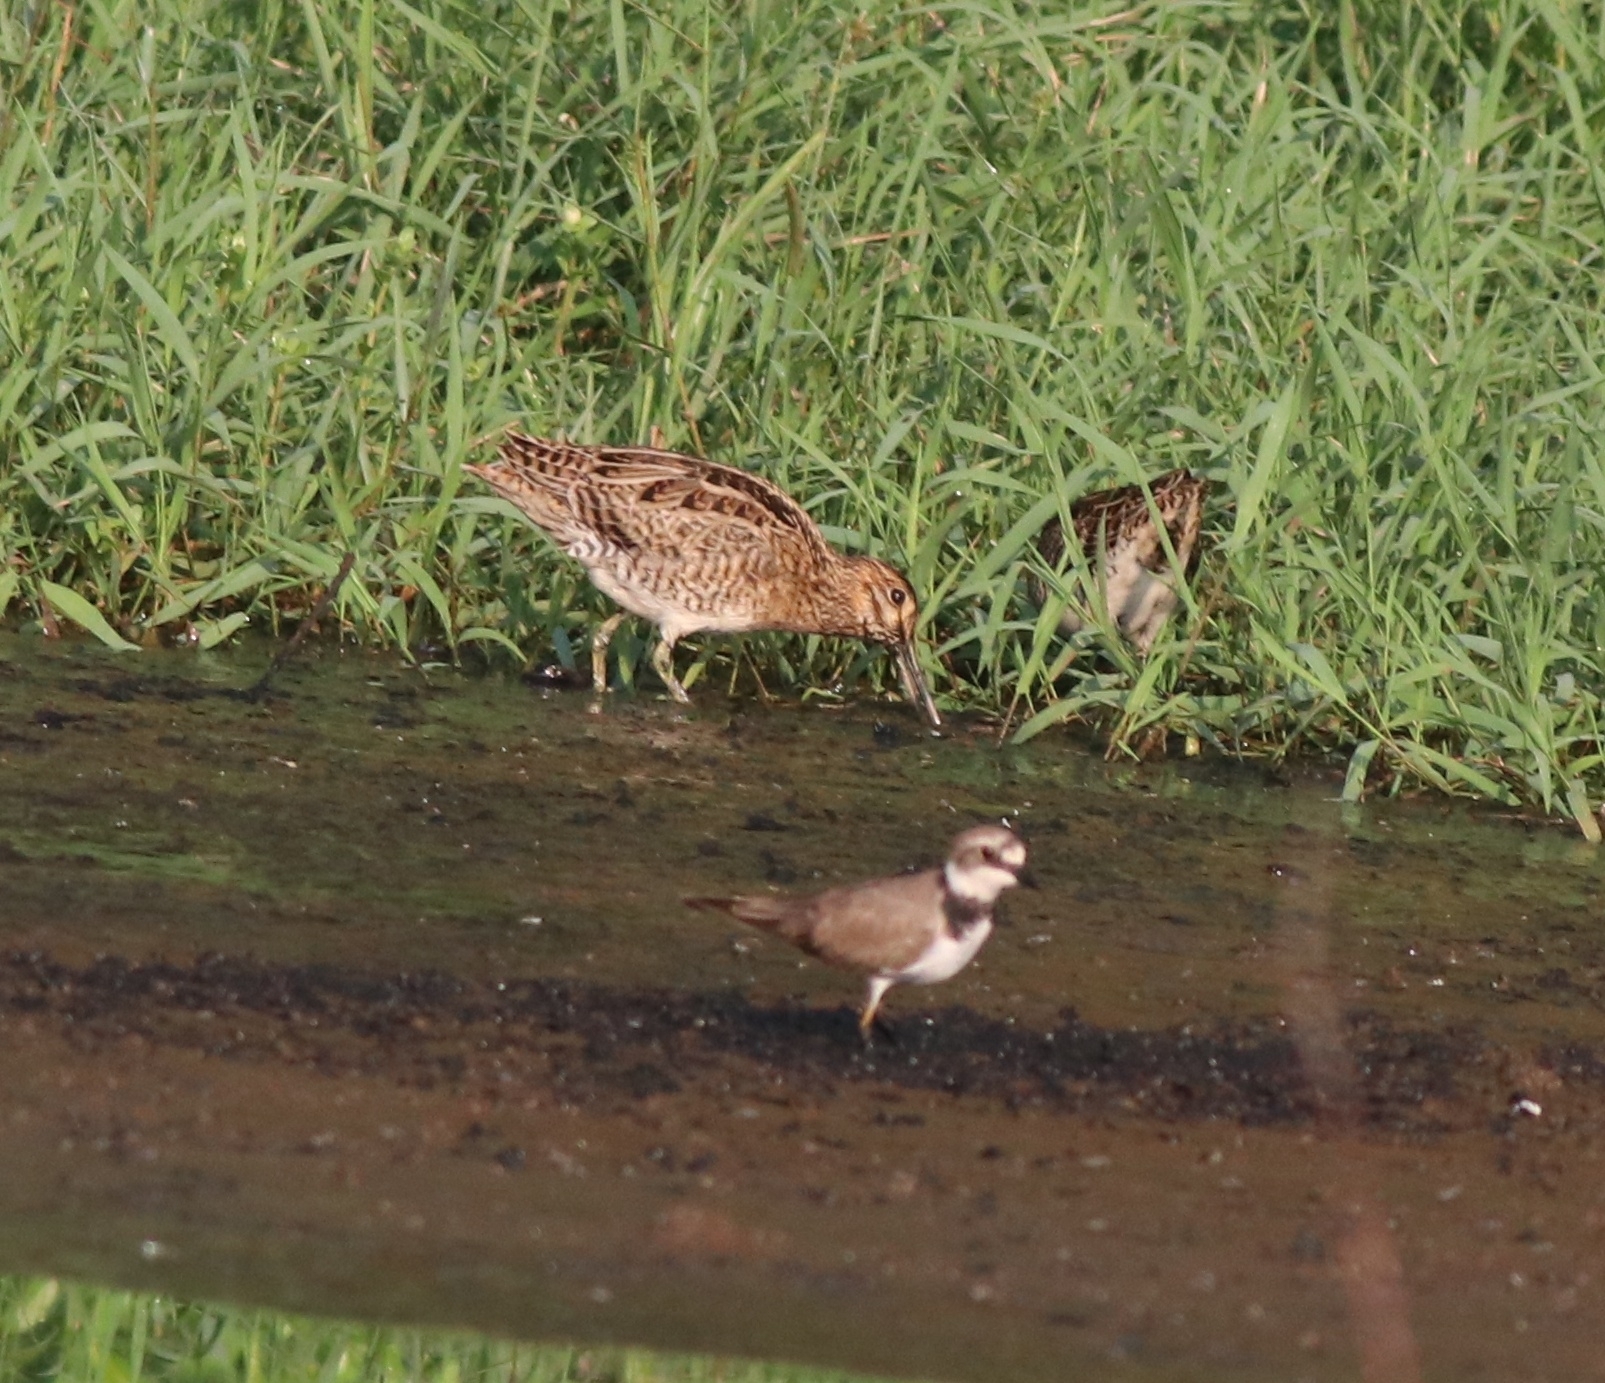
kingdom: Animalia
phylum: Chordata
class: Aves
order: Charadriiformes
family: Scolopacidae
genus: Gallinago
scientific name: Gallinago stenura
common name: Pin-tailed snipe
